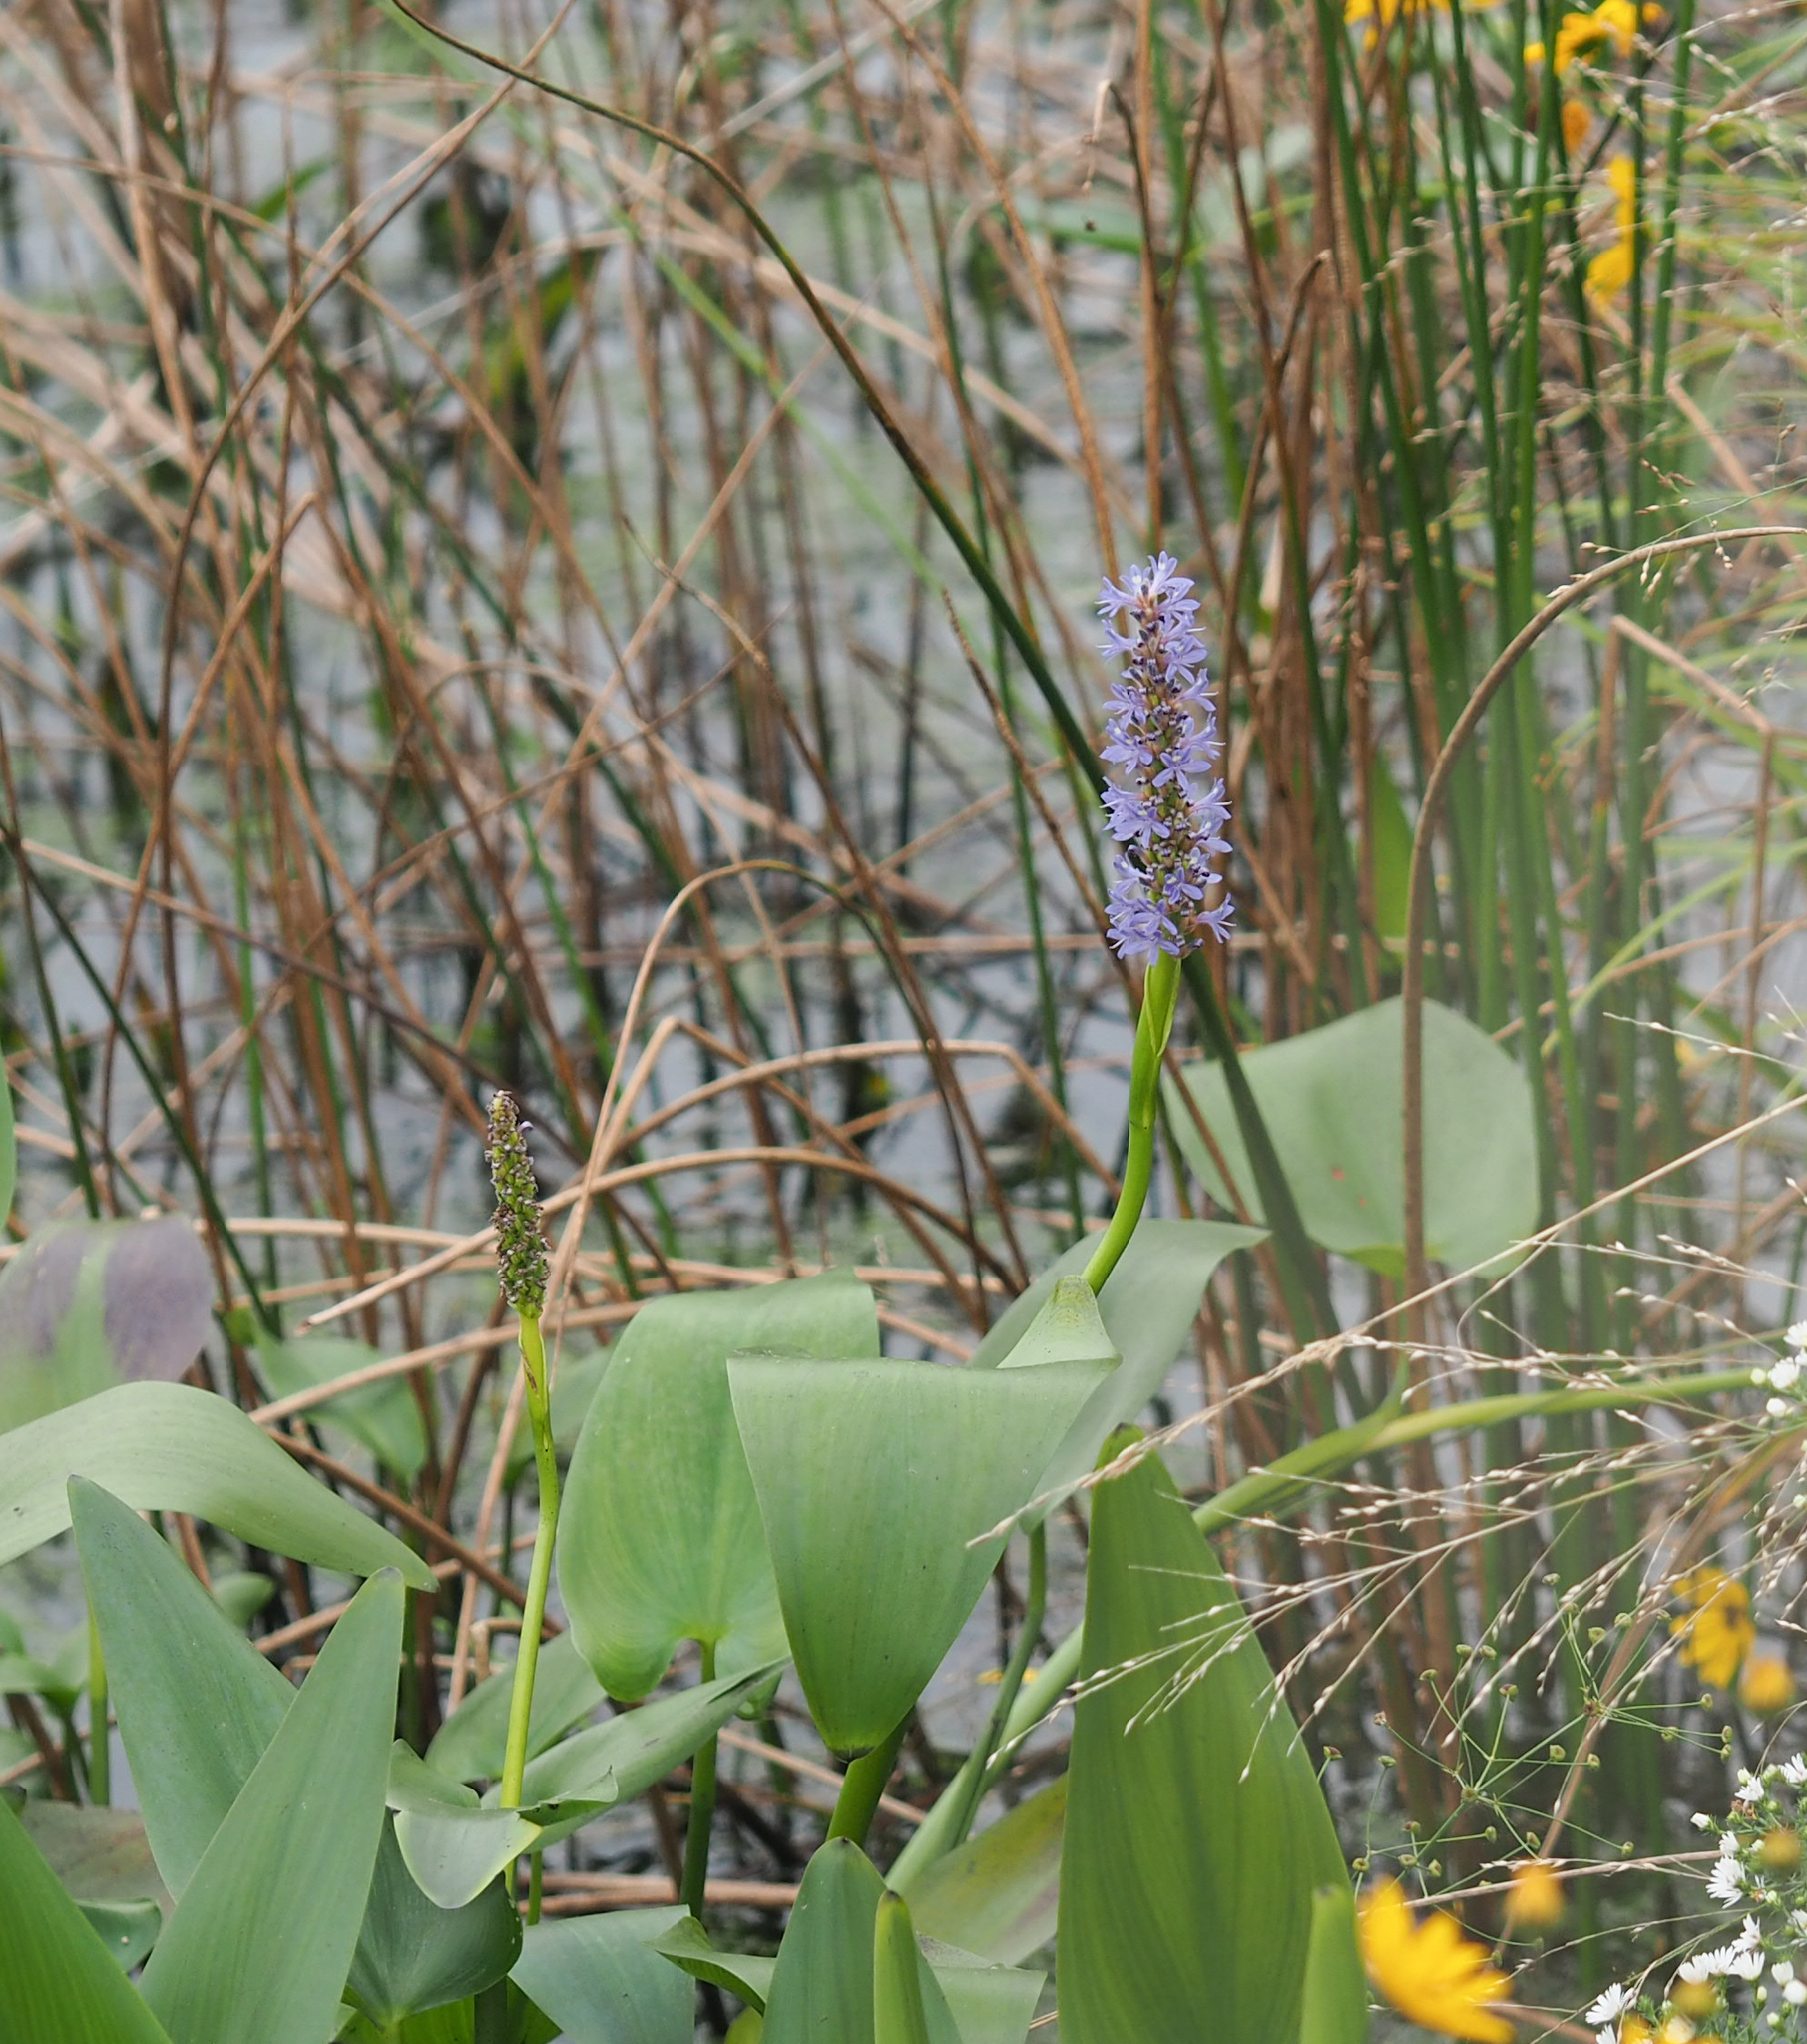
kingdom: Plantae
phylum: Tracheophyta
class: Liliopsida
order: Commelinales
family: Pontederiaceae
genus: Pontederia
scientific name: Pontederia cordata
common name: Pickerelweed
